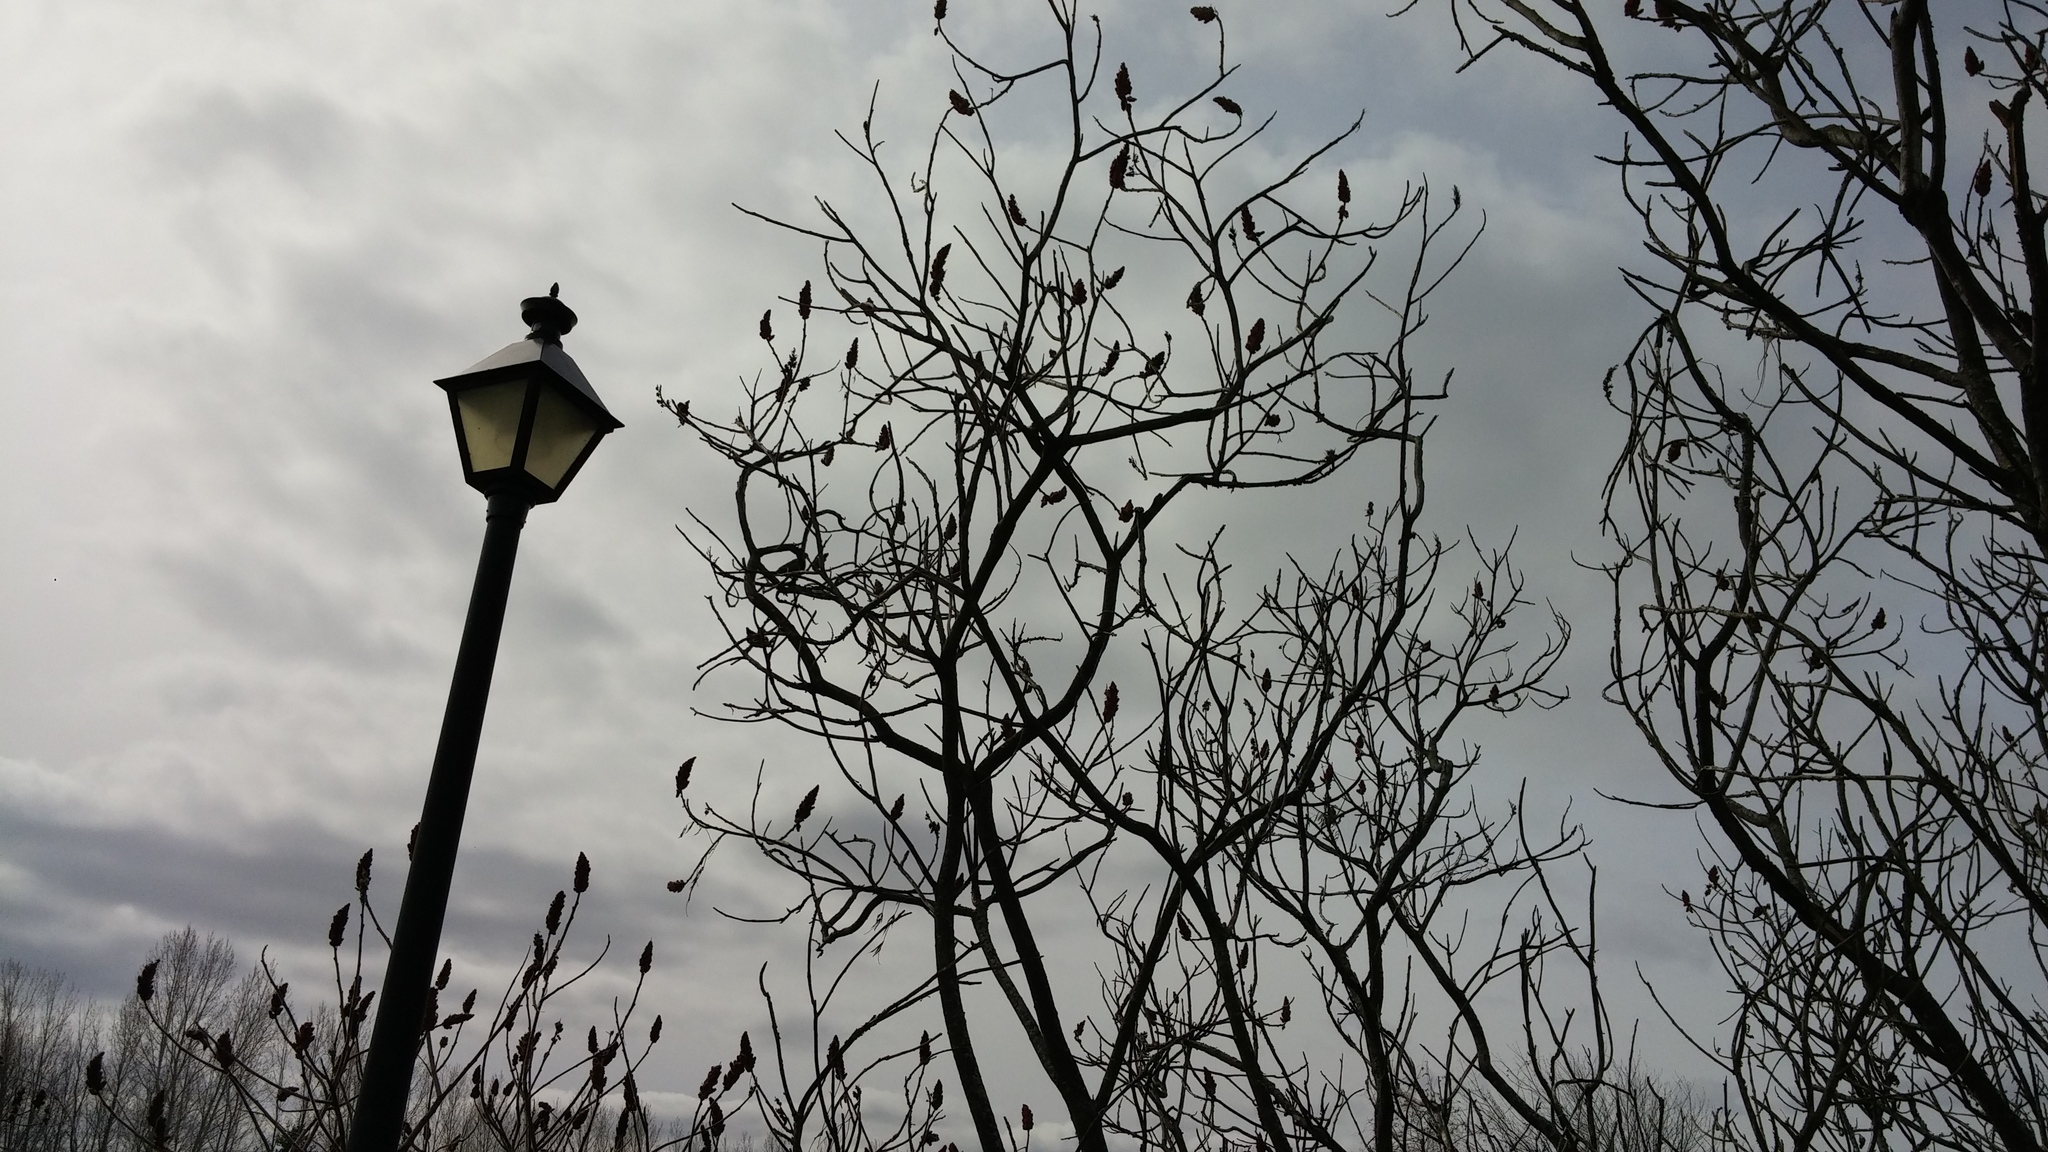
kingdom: Animalia
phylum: Chordata
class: Aves
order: Columbiformes
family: Columbidae
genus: Zenaida
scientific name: Zenaida macroura
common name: Mourning dove
